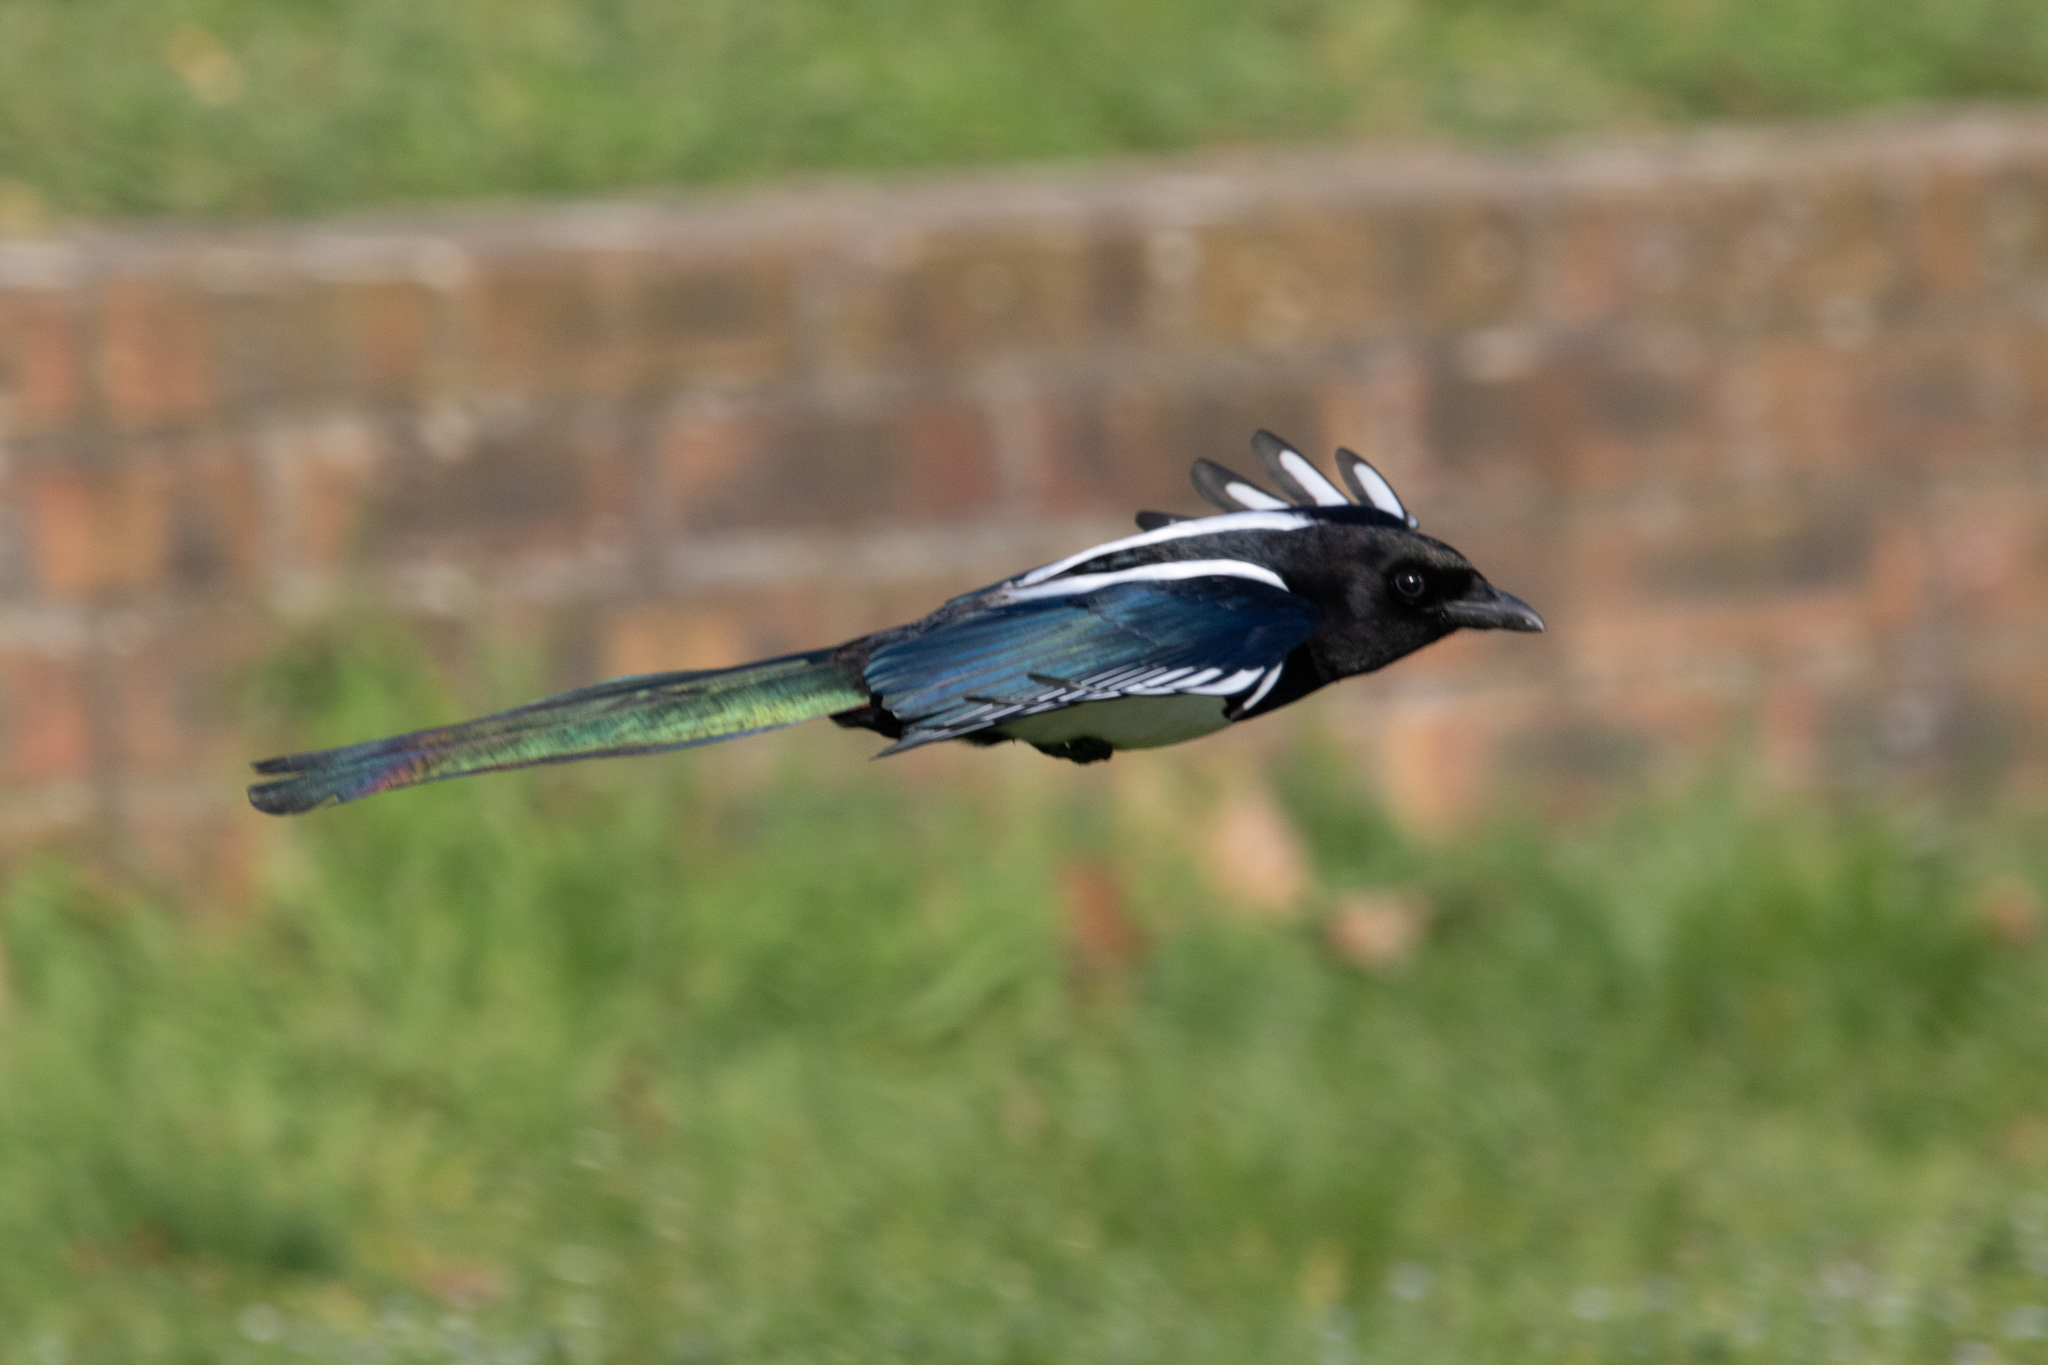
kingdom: Animalia
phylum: Chordata
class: Aves
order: Passeriformes
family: Corvidae
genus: Pica
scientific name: Pica pica
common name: Eurasian magpie
